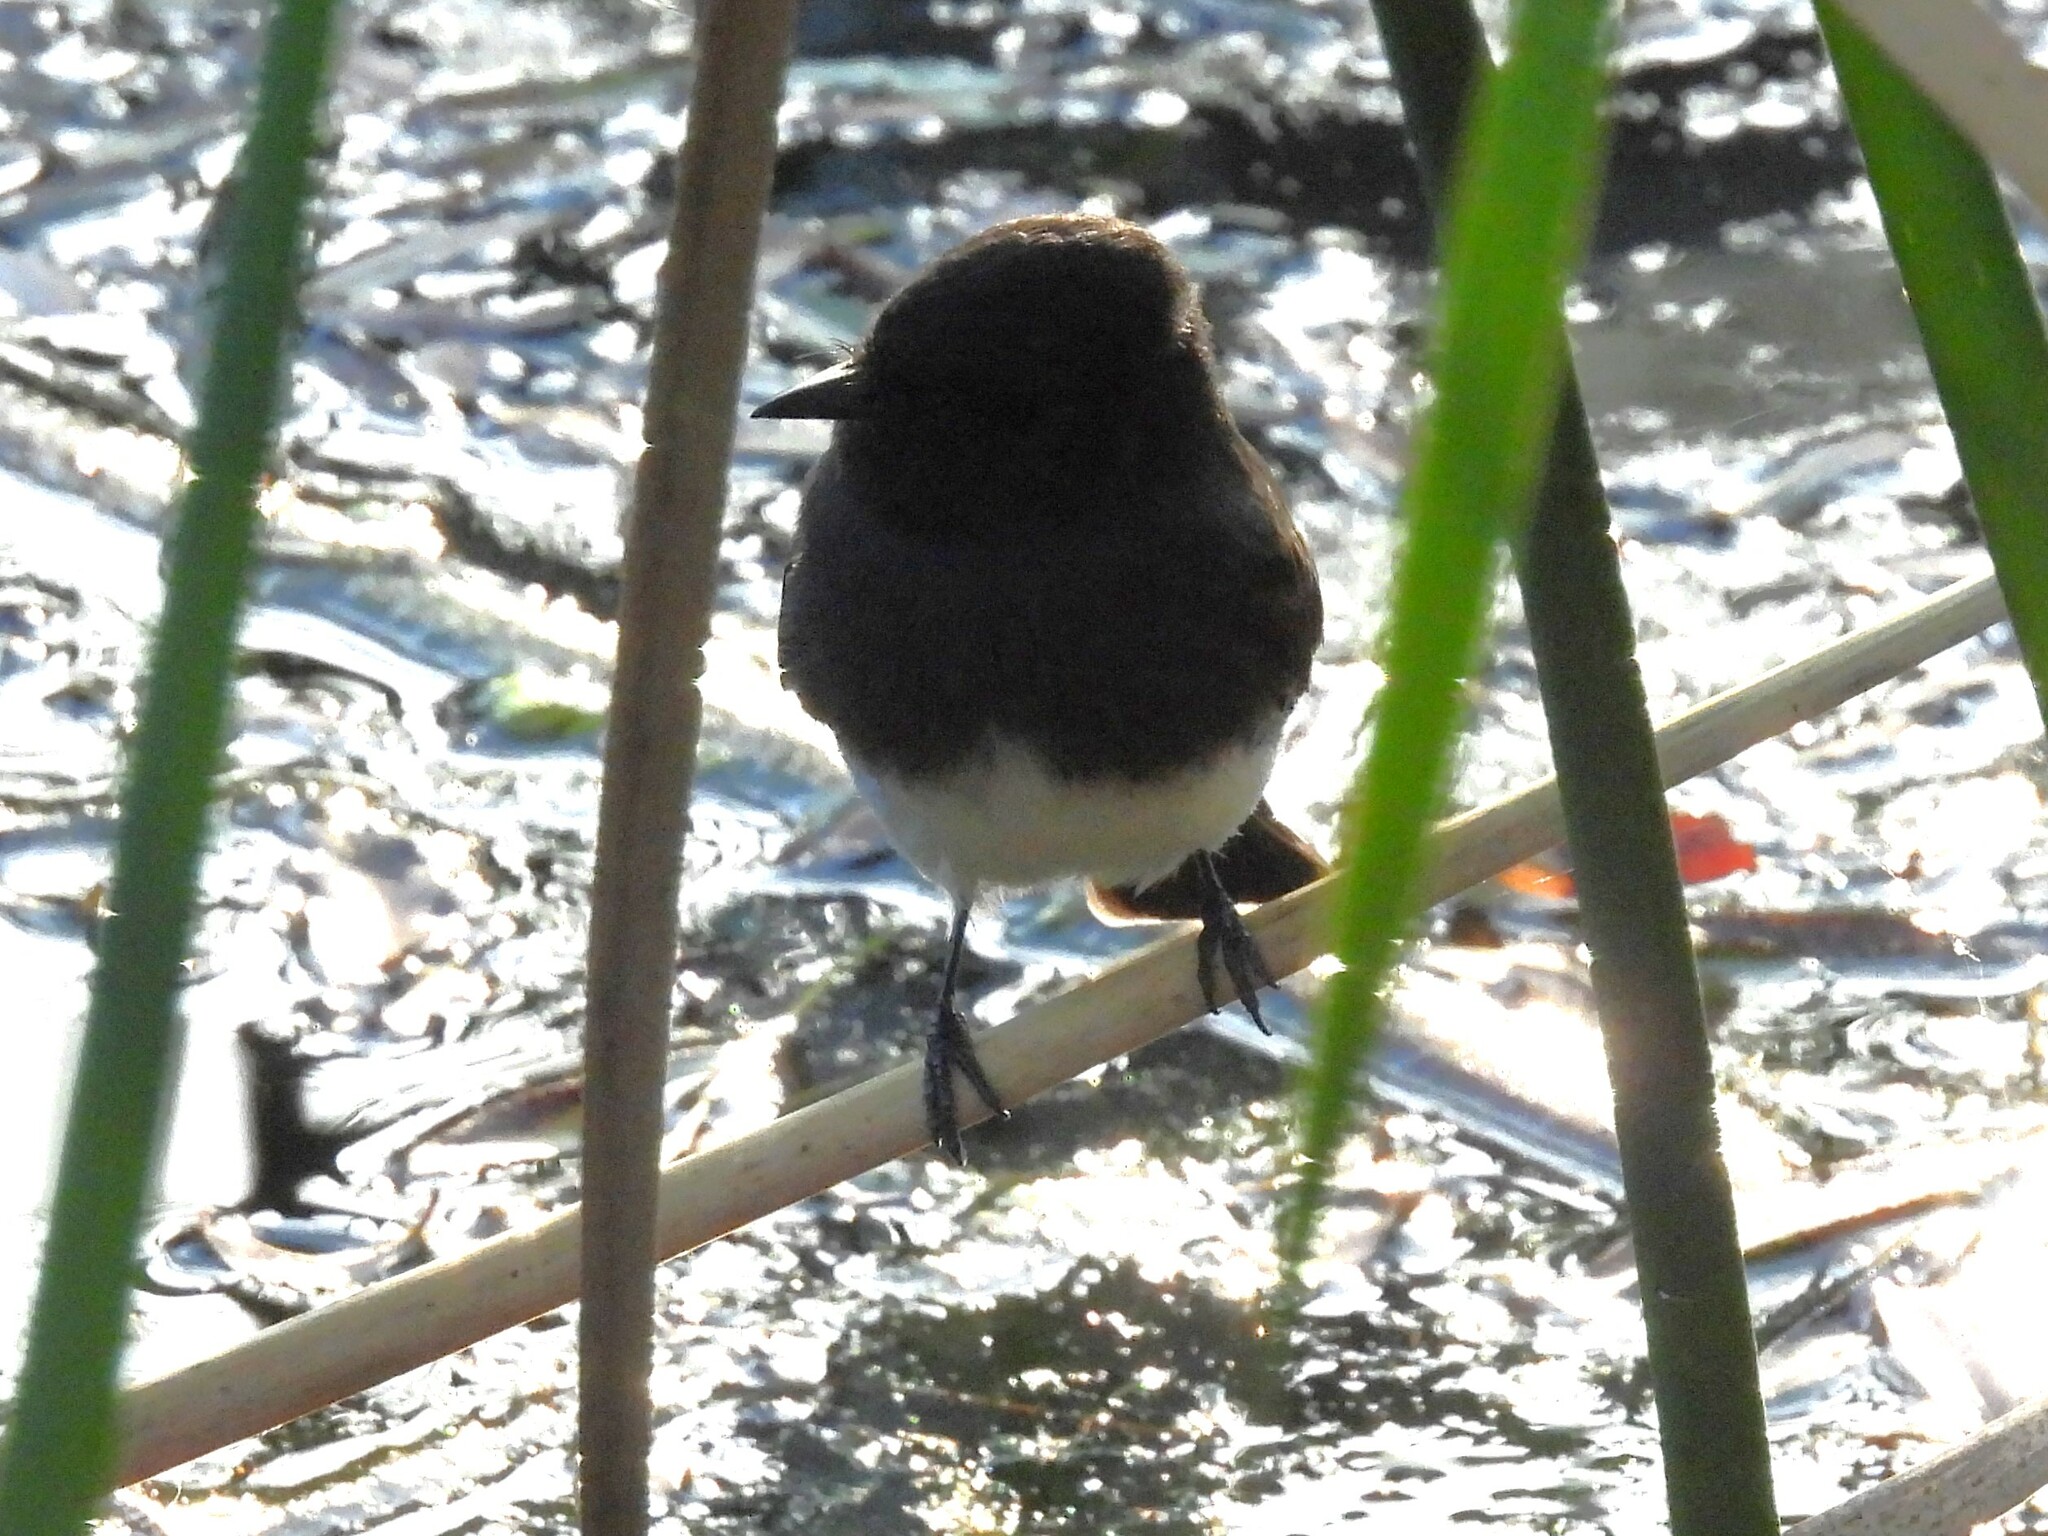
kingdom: Animalia
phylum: Chordata
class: Aves
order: Passeriformes
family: Tyrannidae
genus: Sayornis
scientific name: Sayornis nigricans
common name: Black phoebe
